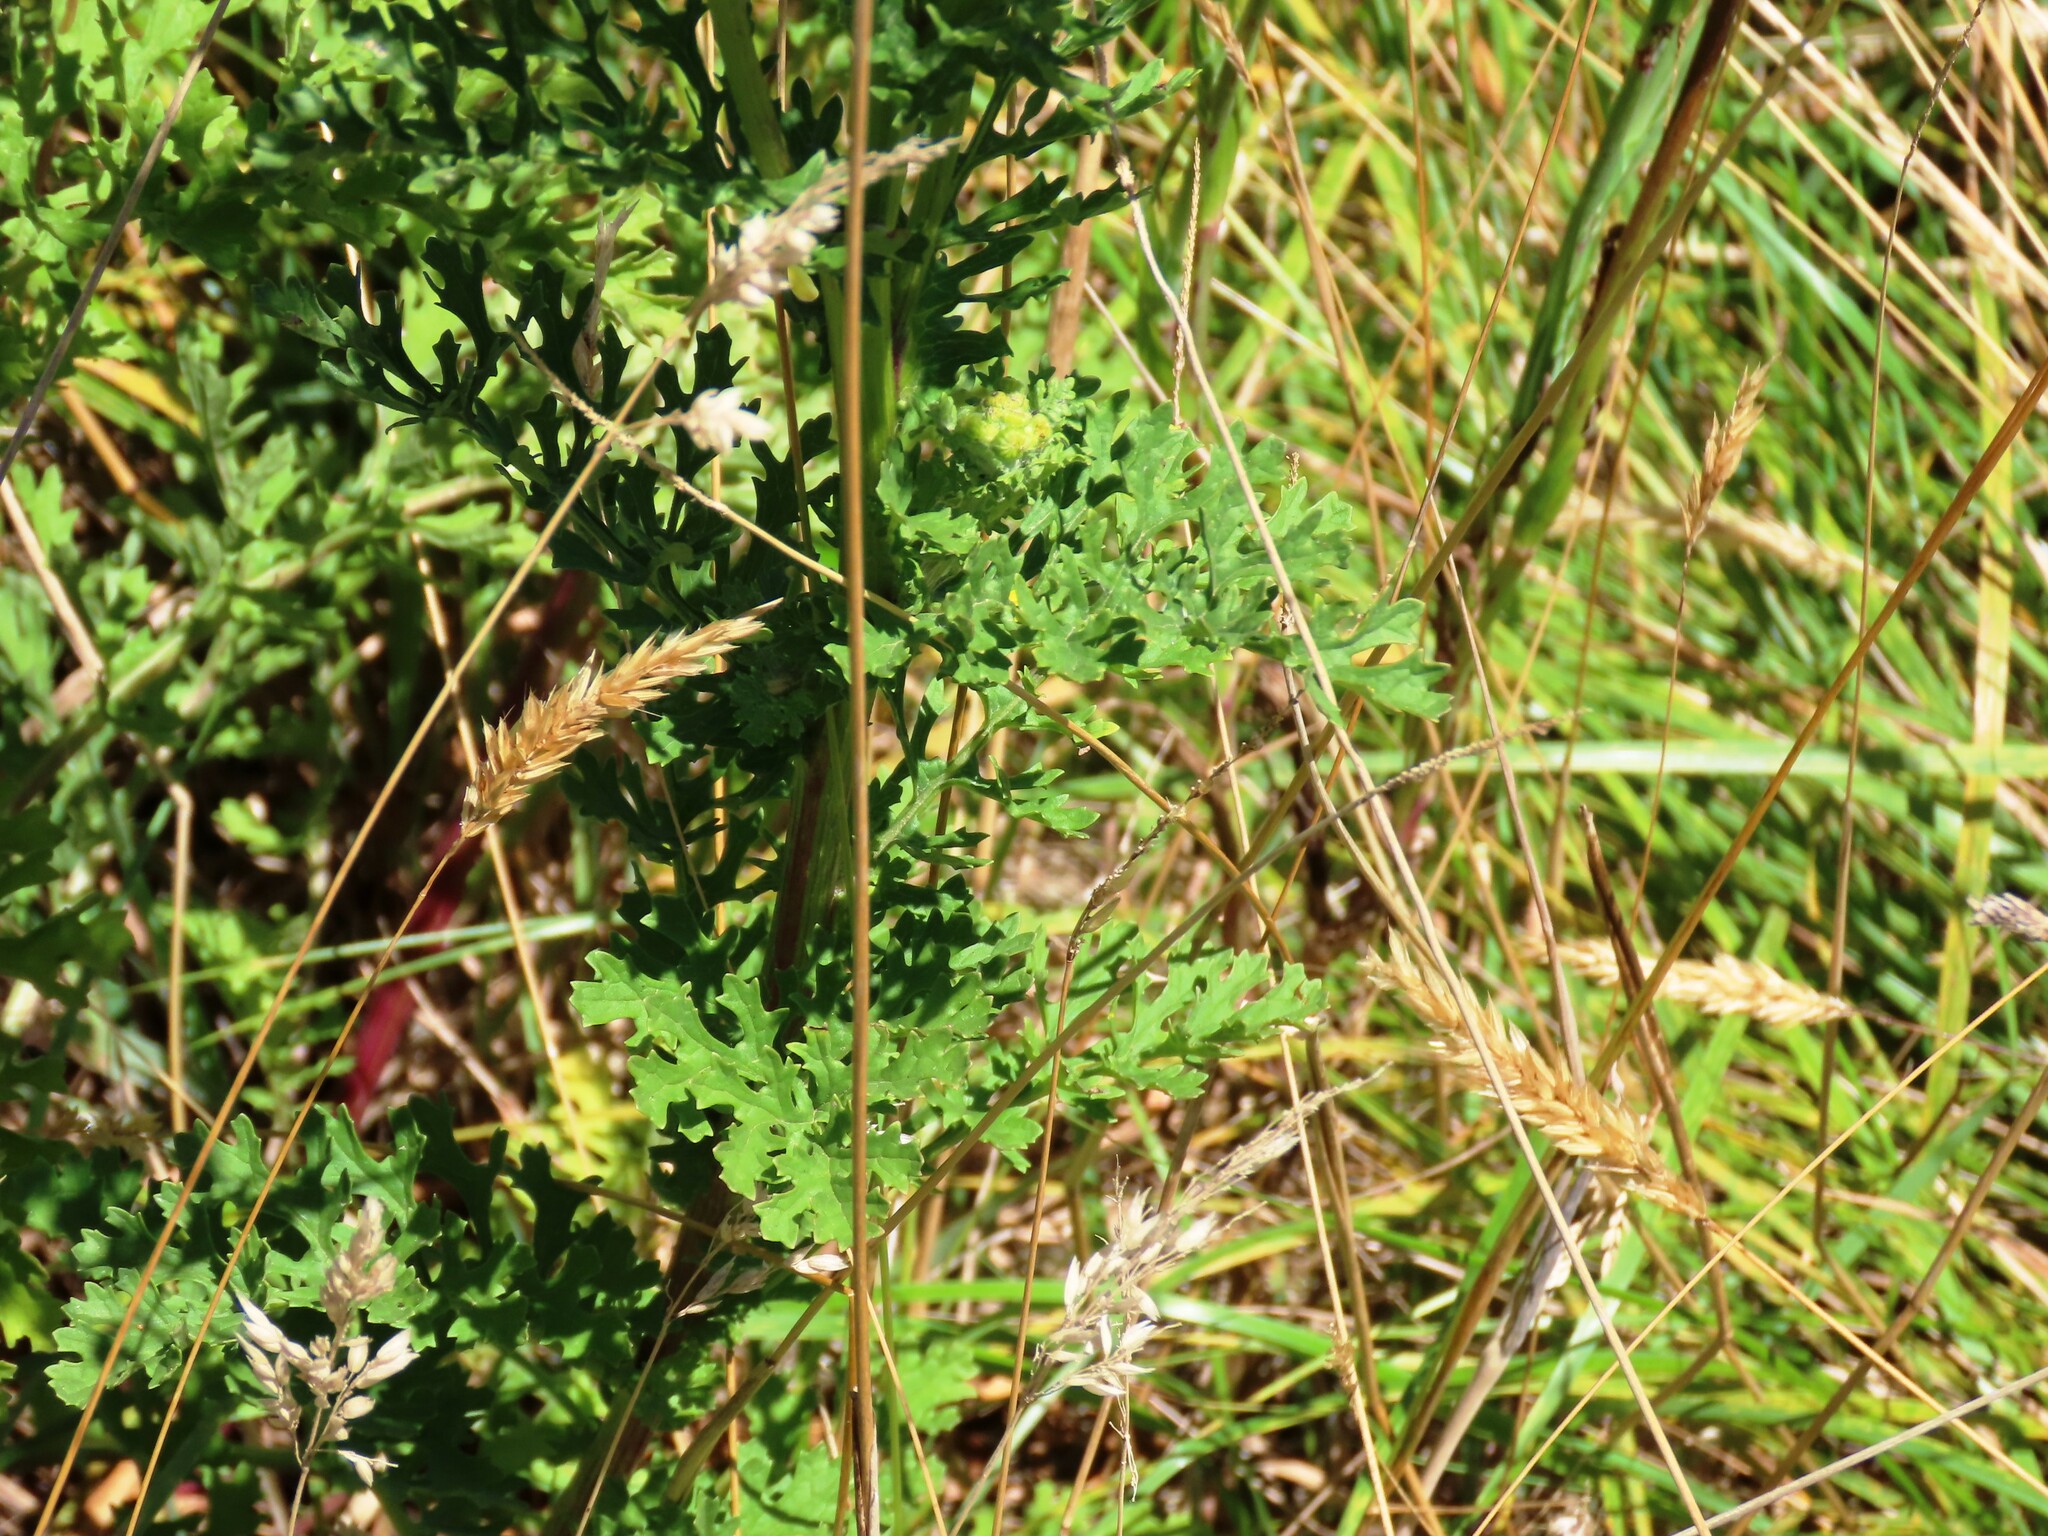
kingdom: Plantae
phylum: Tracheophyta
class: Magnoliopsida
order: Asterales
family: Asteraceae
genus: Jacobaea
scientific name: Jacobaea vulgaris
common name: Stinking willie
